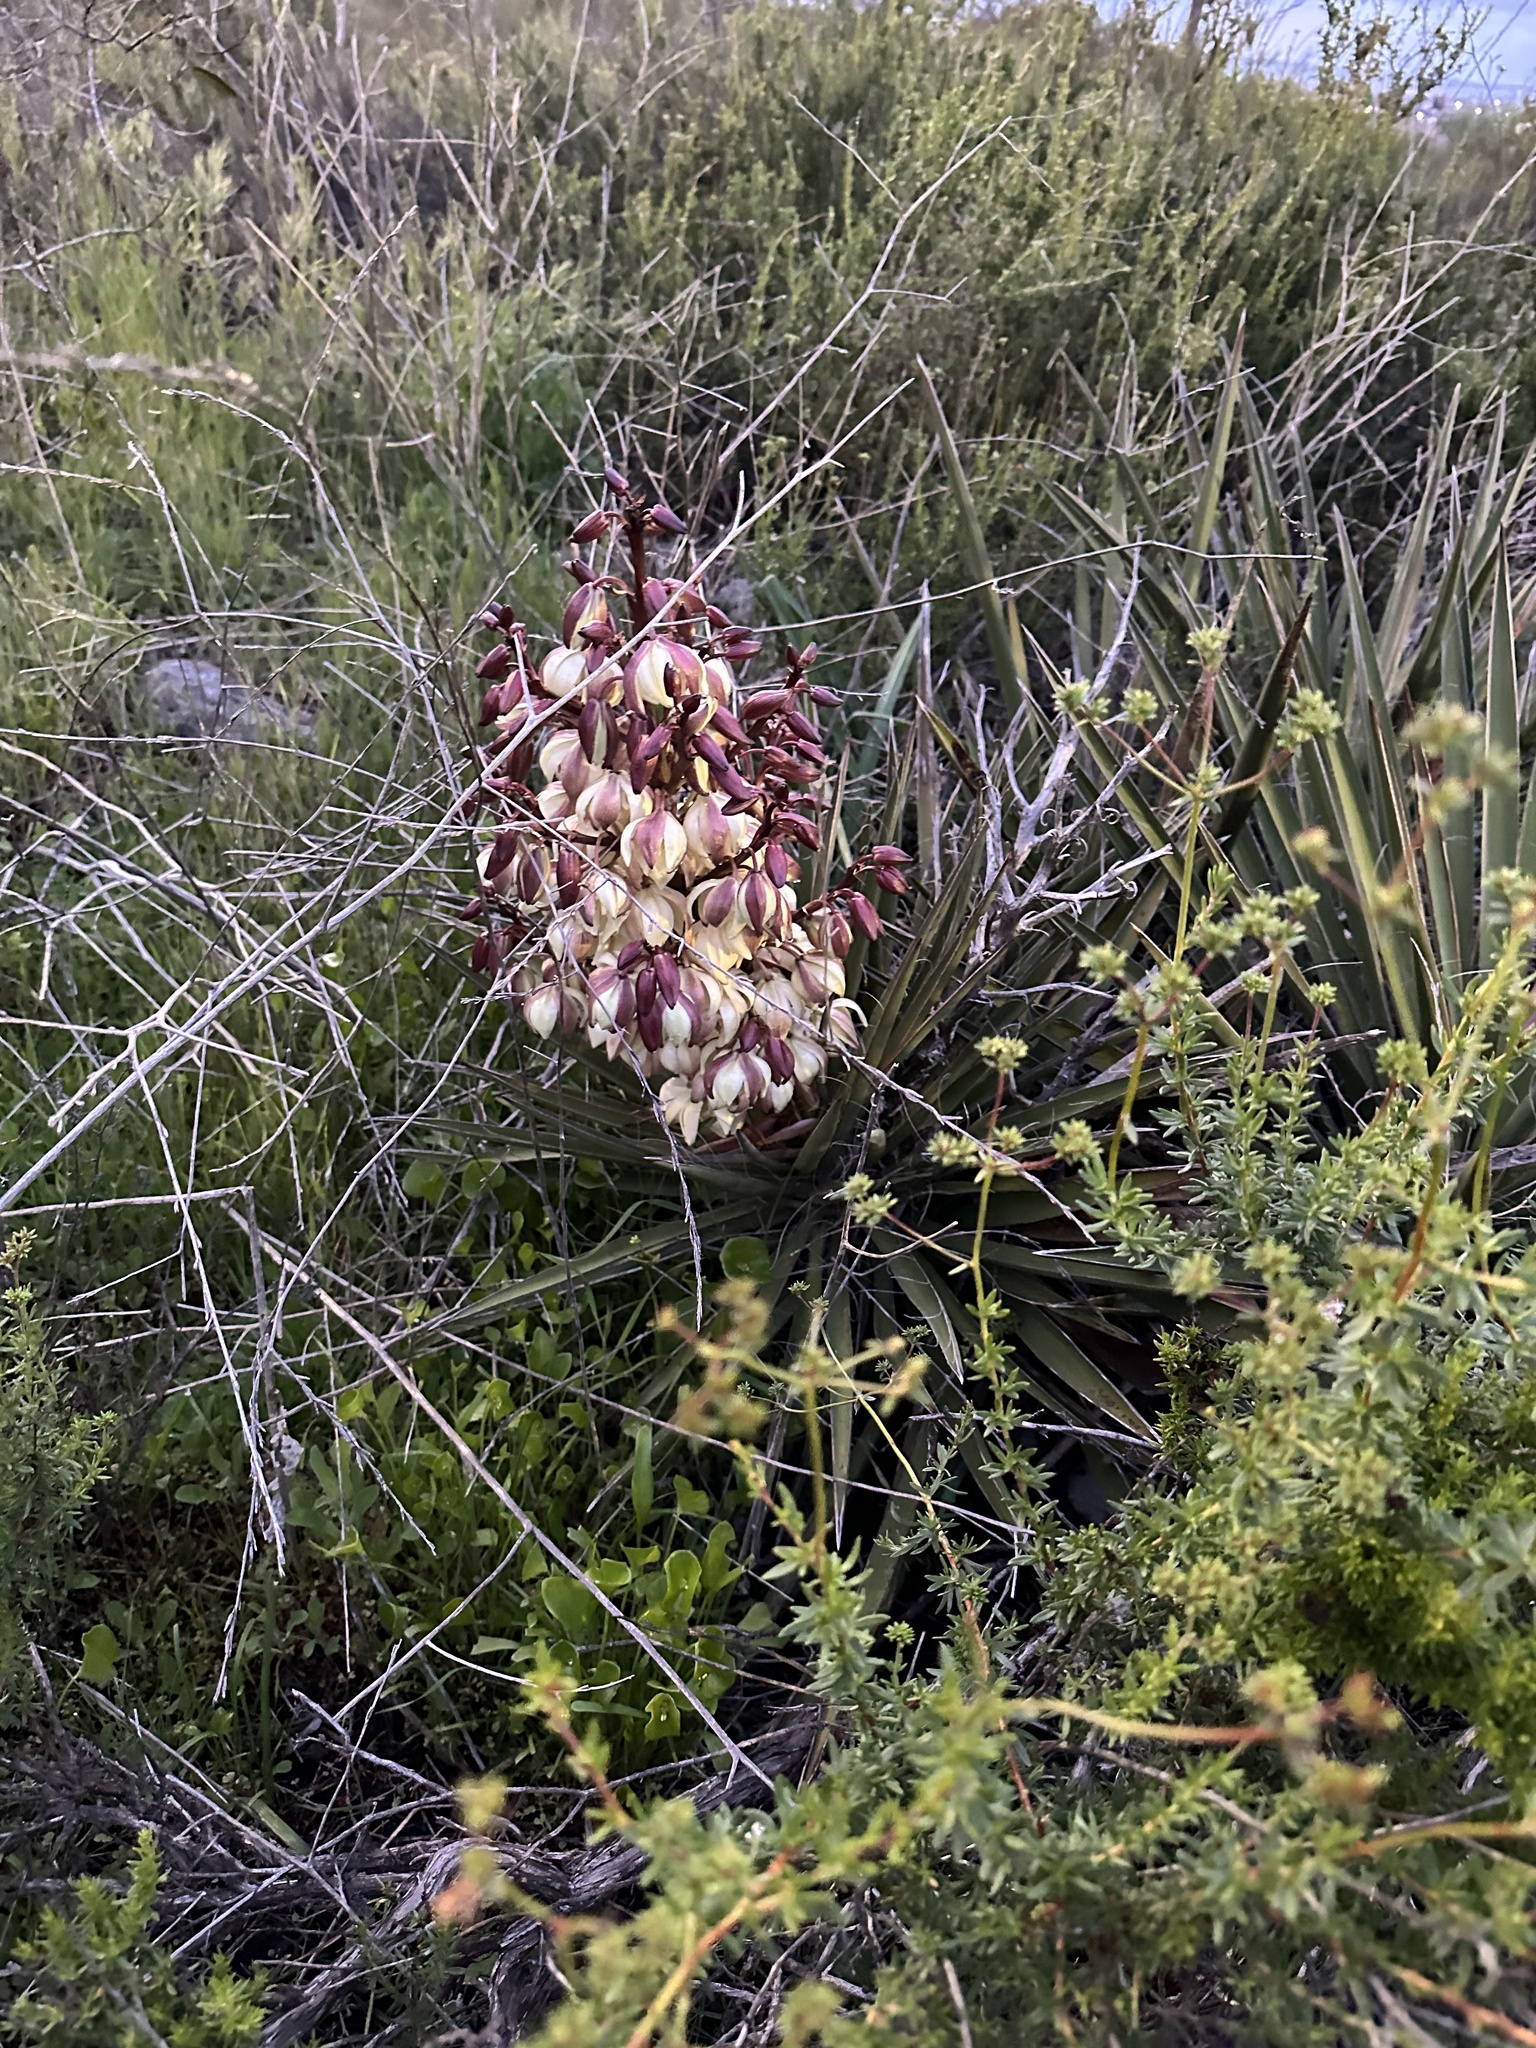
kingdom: Plantae
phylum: Tracheophyta
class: Liliopsida
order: Asparagales
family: Asparagaceae
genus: Yucca
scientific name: Yucca schidigera
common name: Mojave yucca
